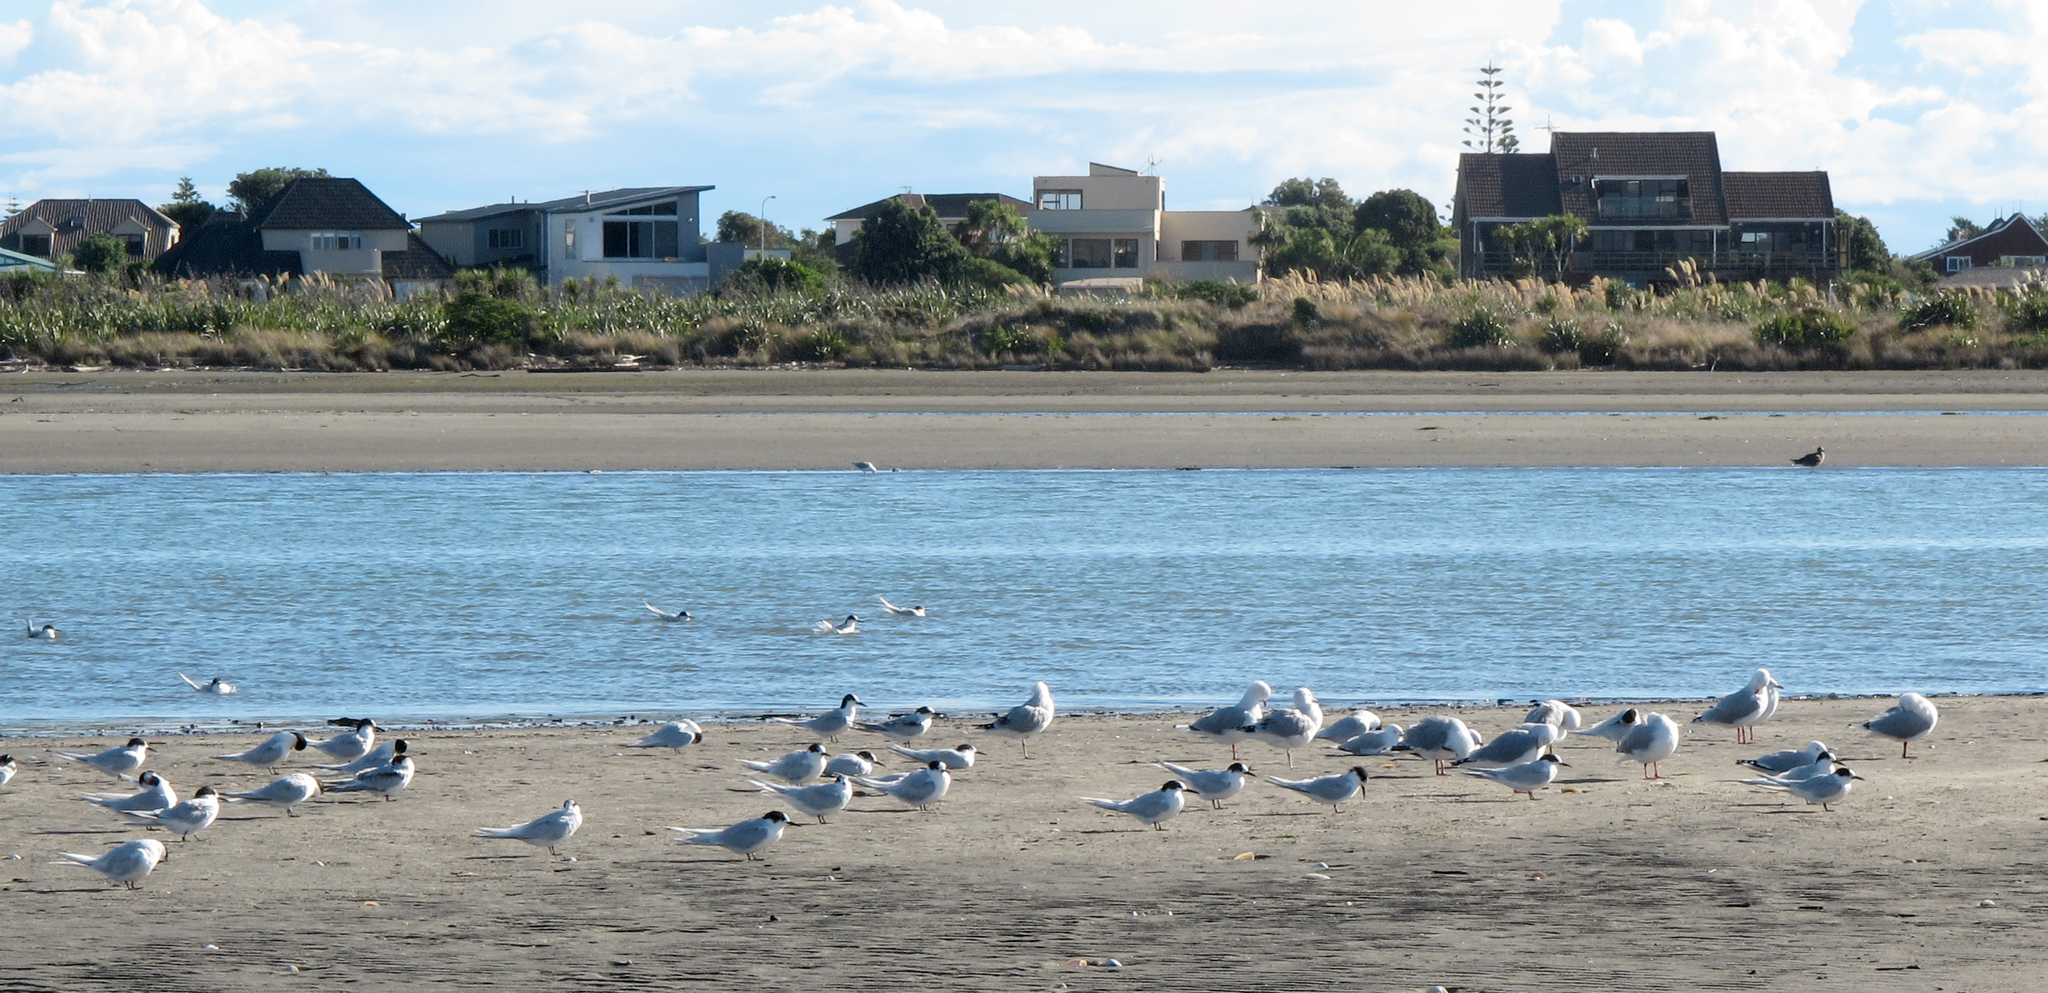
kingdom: Animalia
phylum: Chordata
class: Aves
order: Charadriiformes
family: Laridae
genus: Sterna
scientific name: Sterna striata
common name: White-fronted tern
